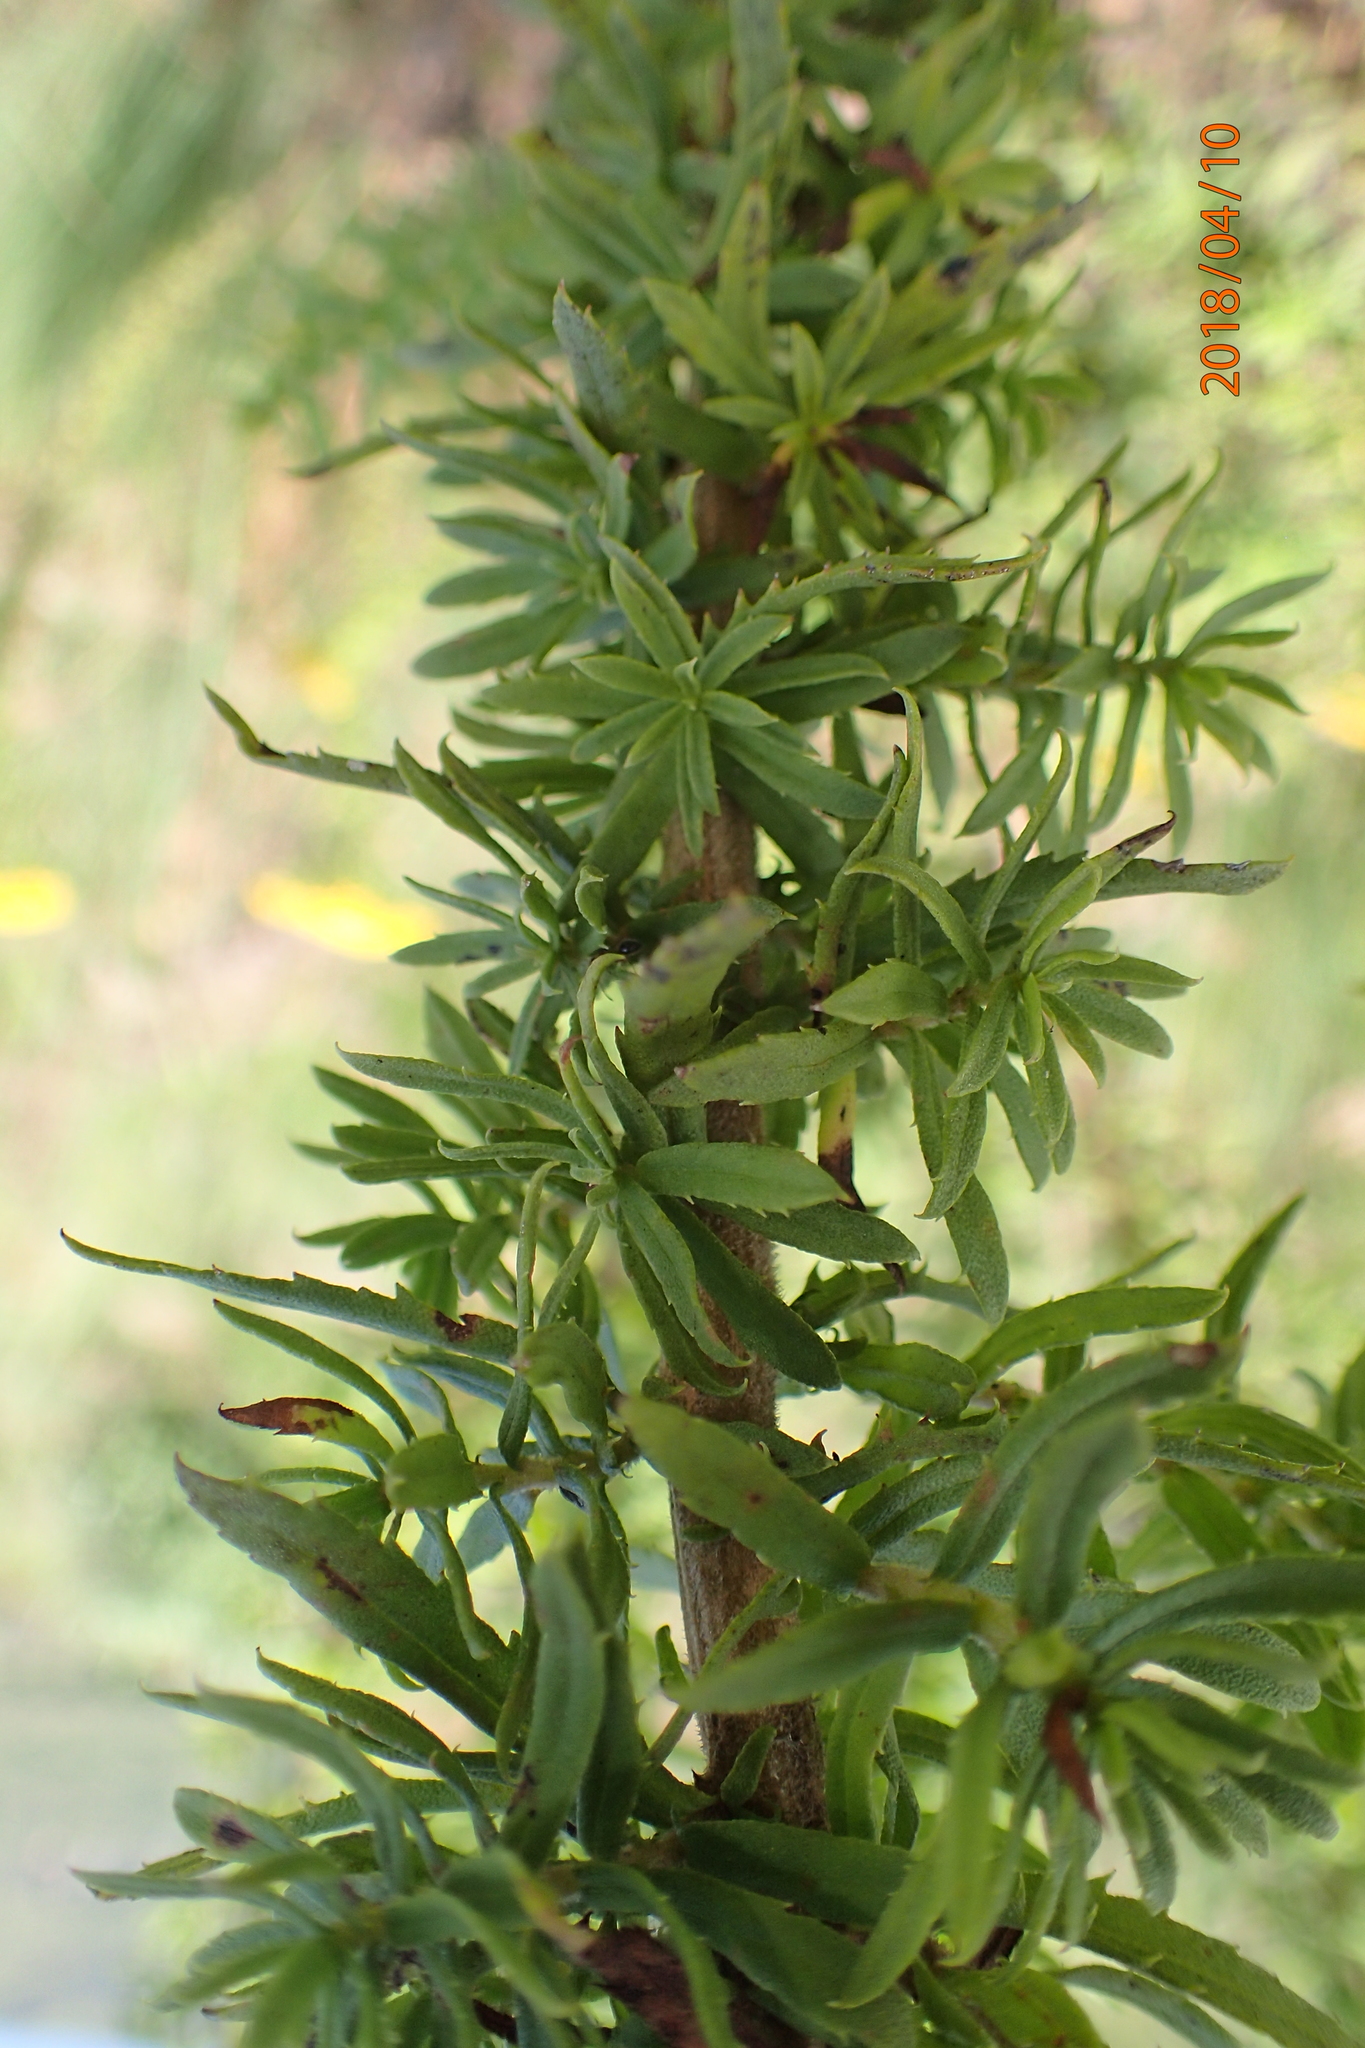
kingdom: Plantae
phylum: Tracheophyta
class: Magnoliopsida
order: Asterales
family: Asteraceae
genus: Inulanthera
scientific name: Inulanthera dregeana
